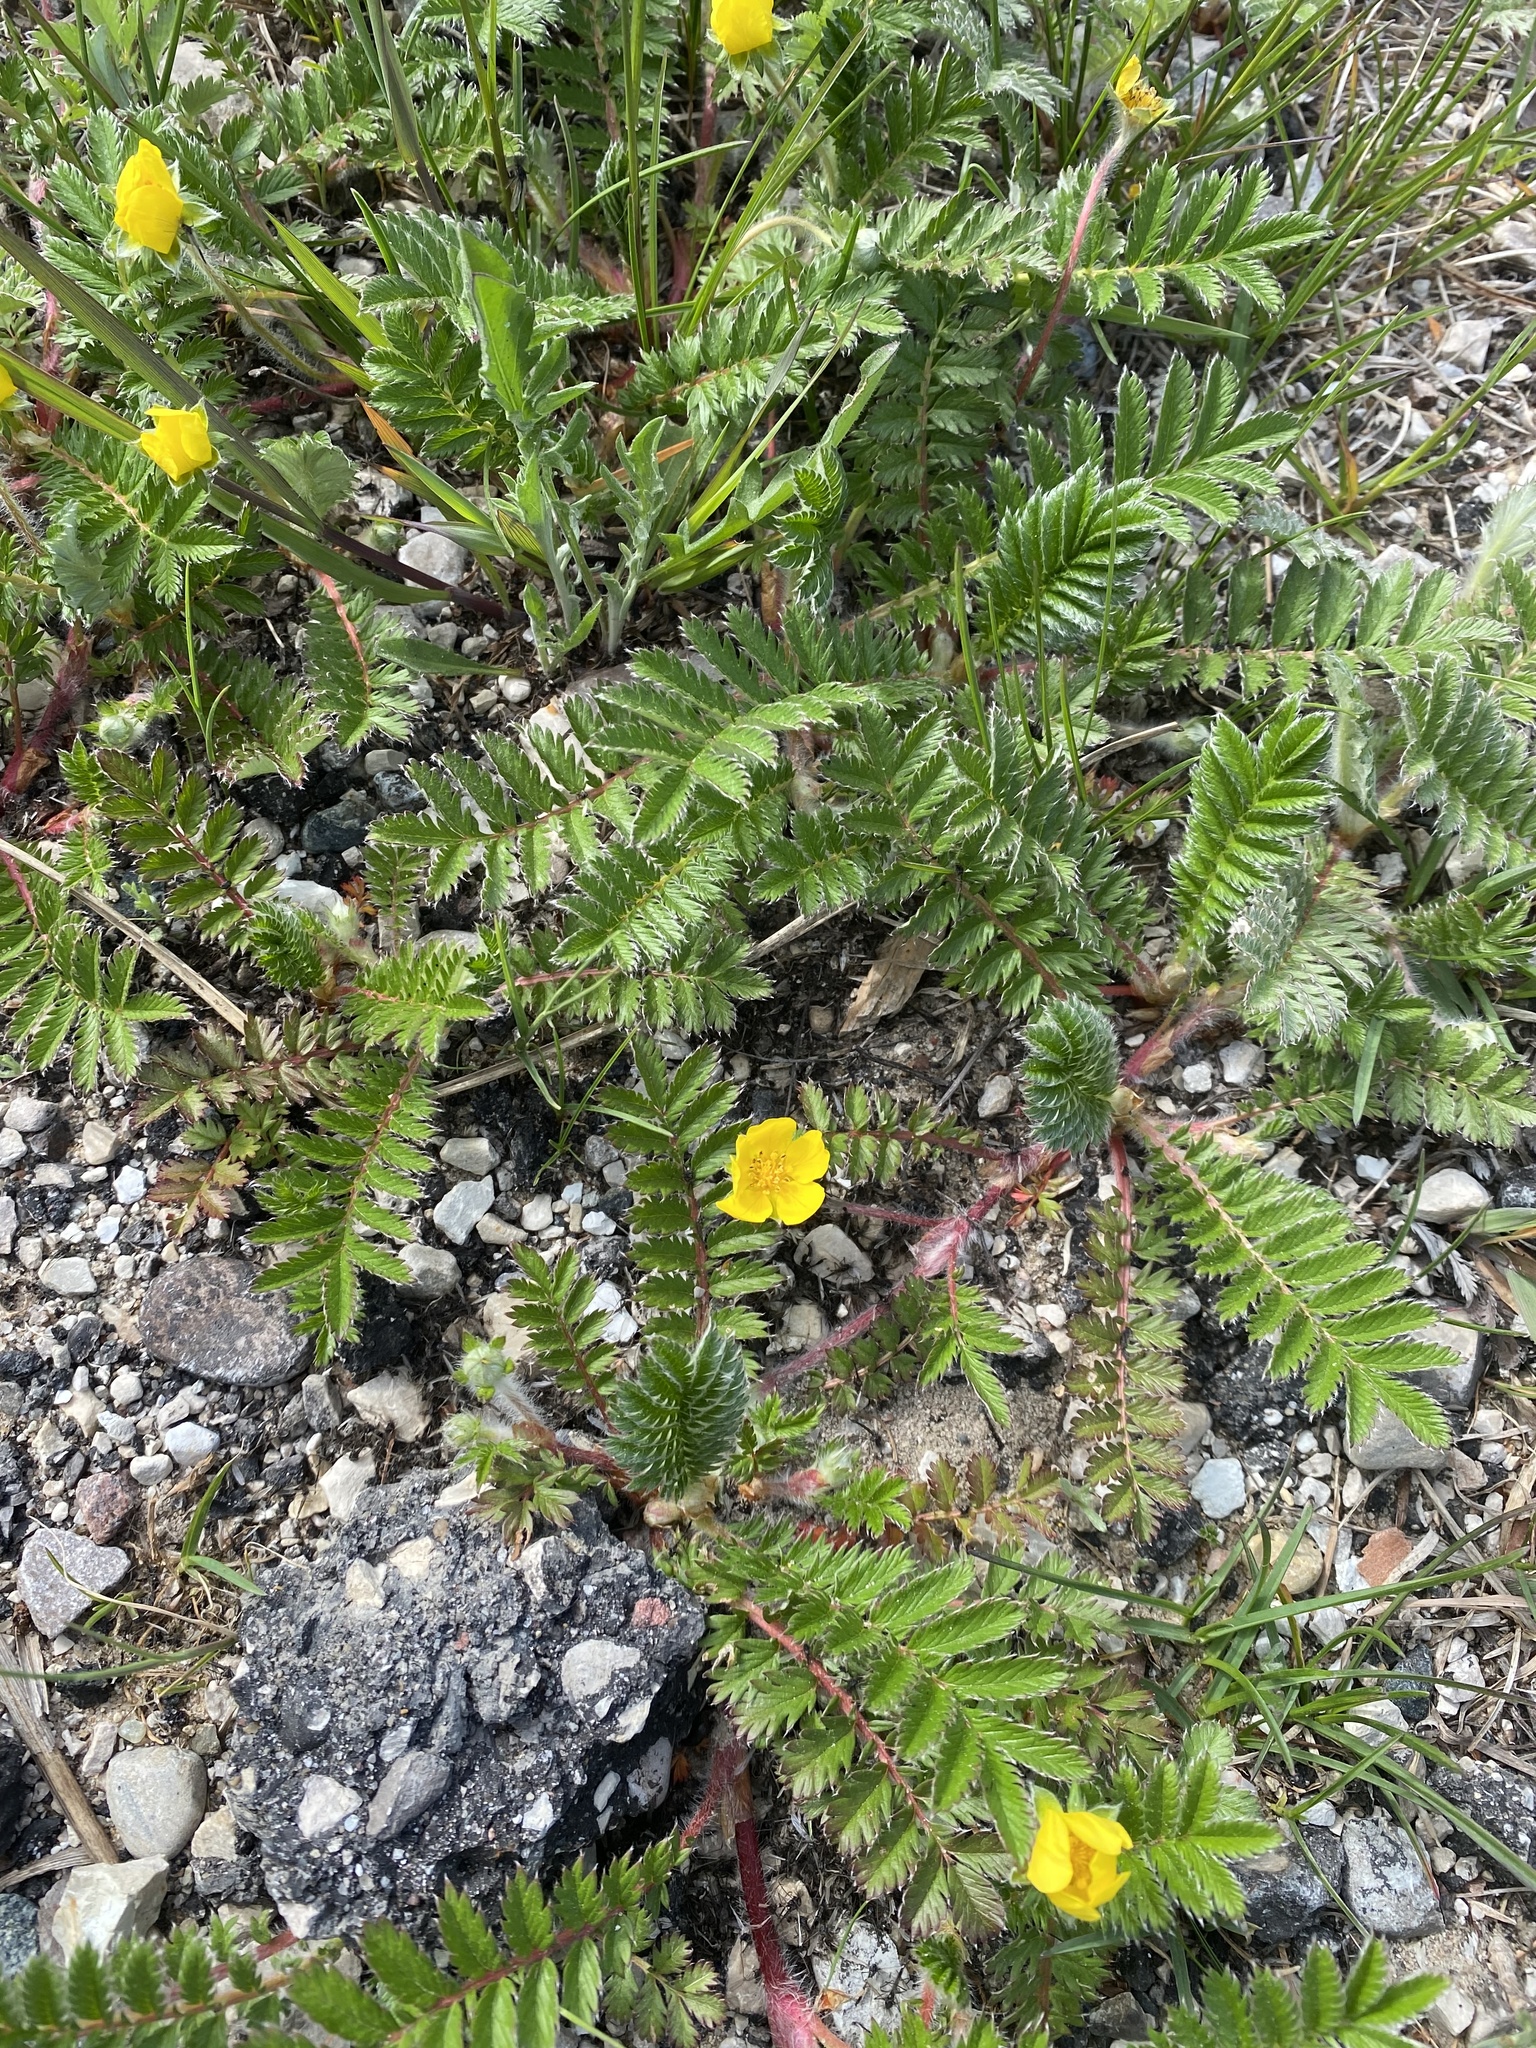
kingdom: Plantae
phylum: Tracheophyta
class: Magnoliopsida
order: Rosales
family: Rosaceae
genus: Argentina
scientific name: Argentina anserina
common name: Common silverweed
